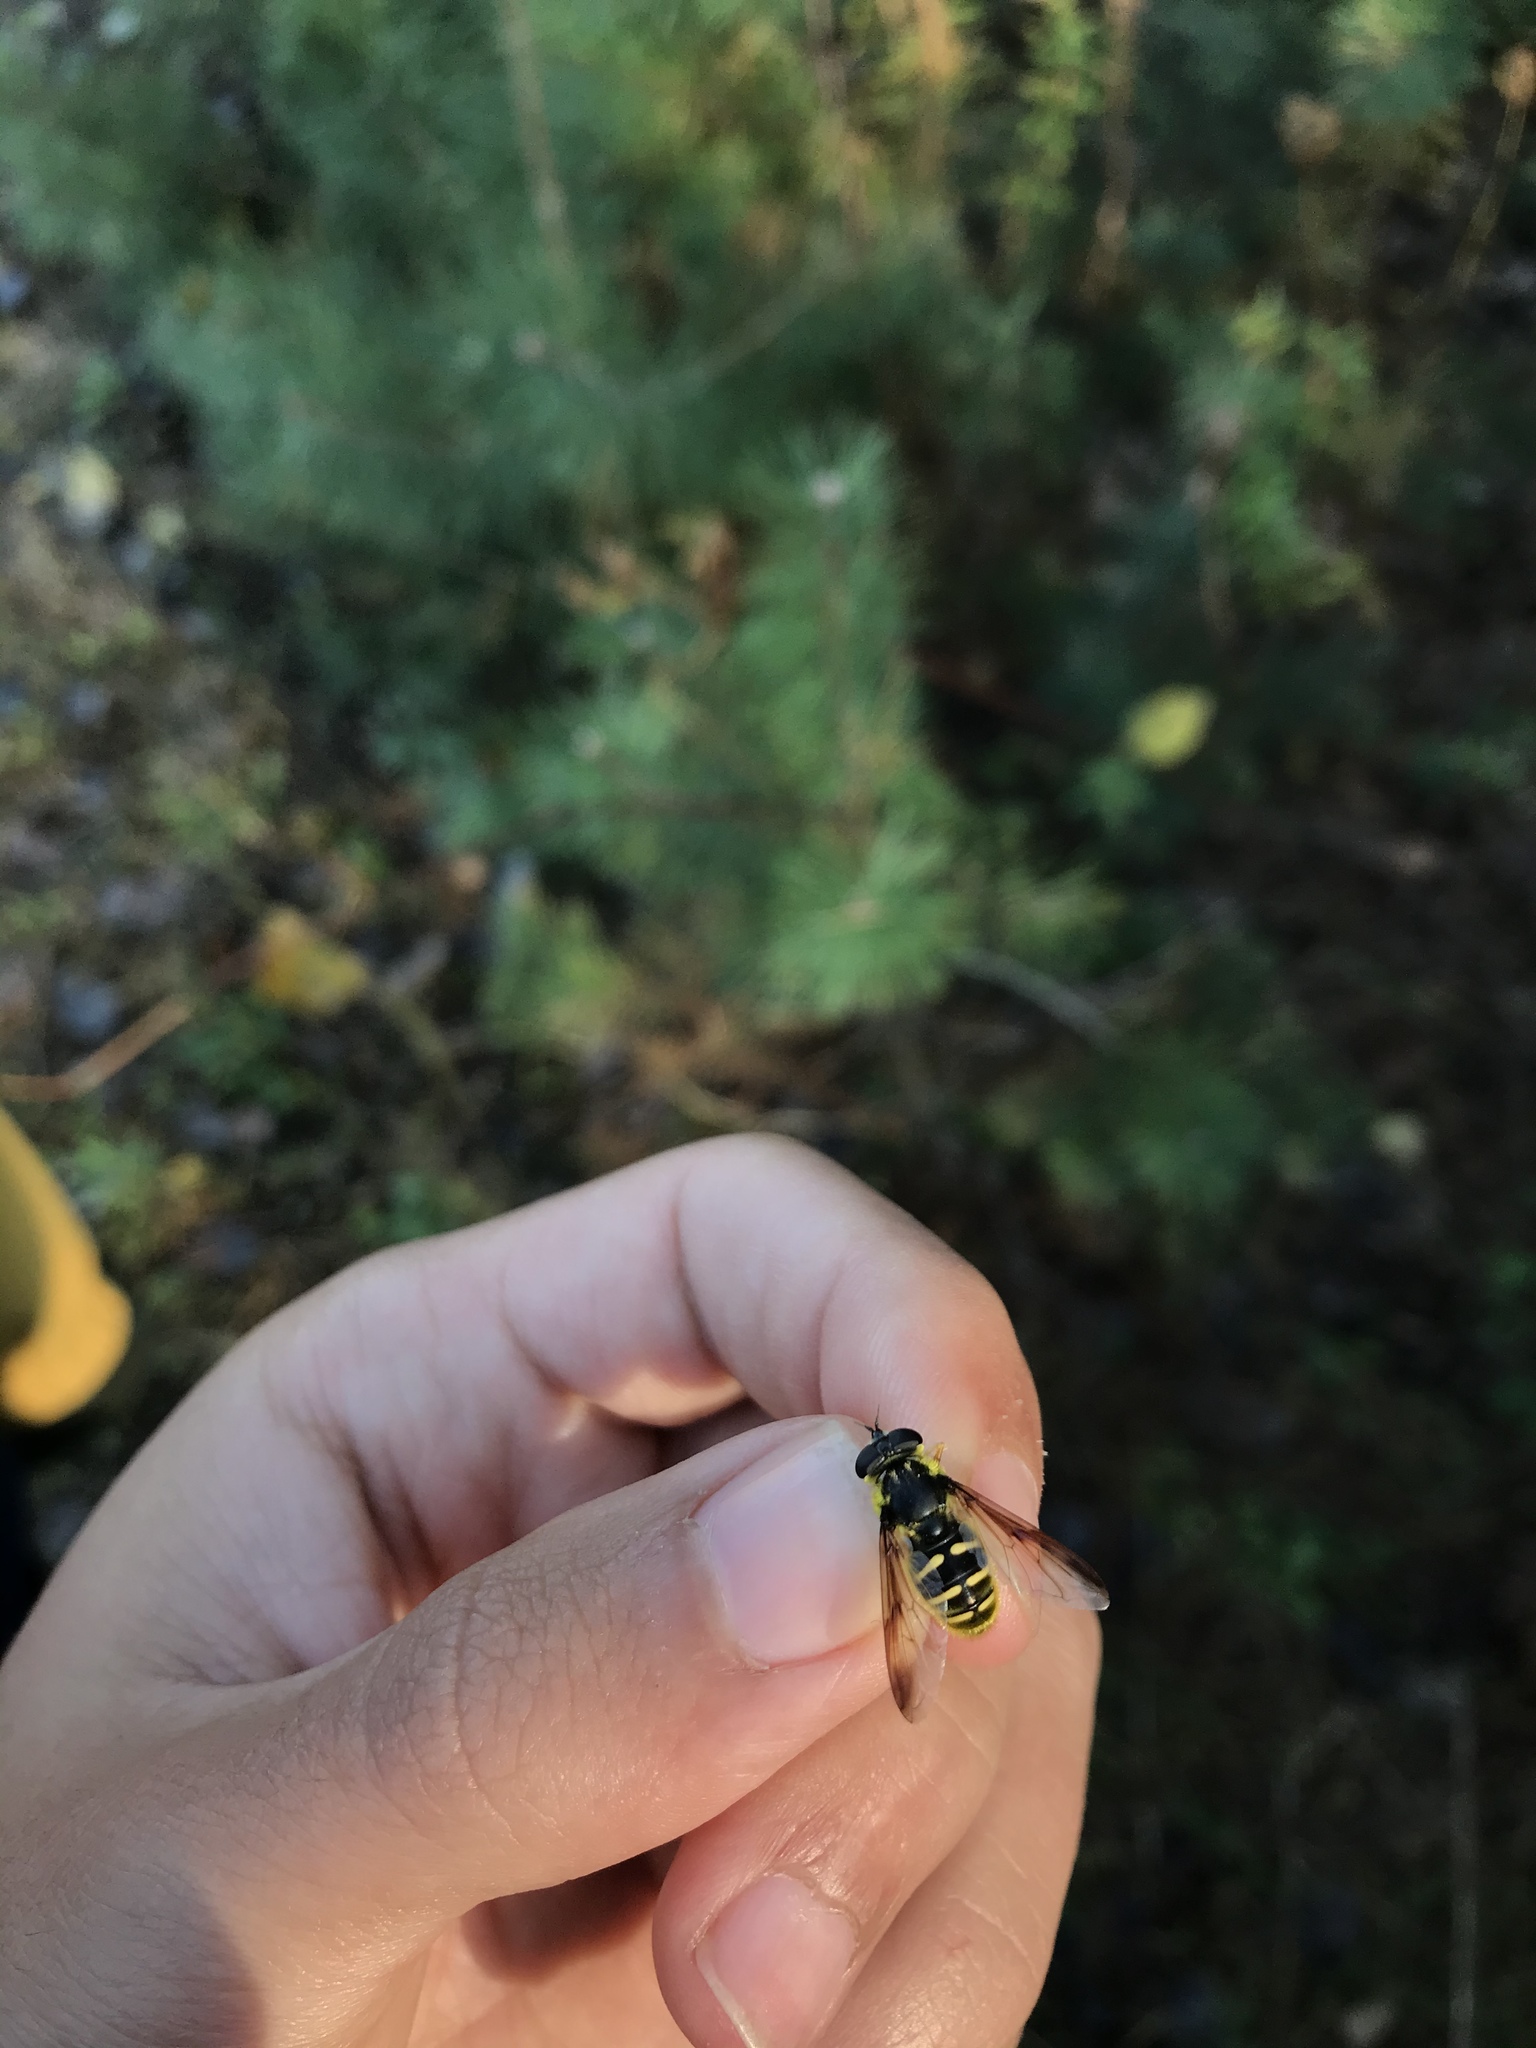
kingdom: Animalia
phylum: Arthropoda
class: Insecta
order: Diptera
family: Syrphidae
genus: Sericomyia
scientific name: Sericomyia chrysotoxoides
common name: Oblique-banded pond fly
